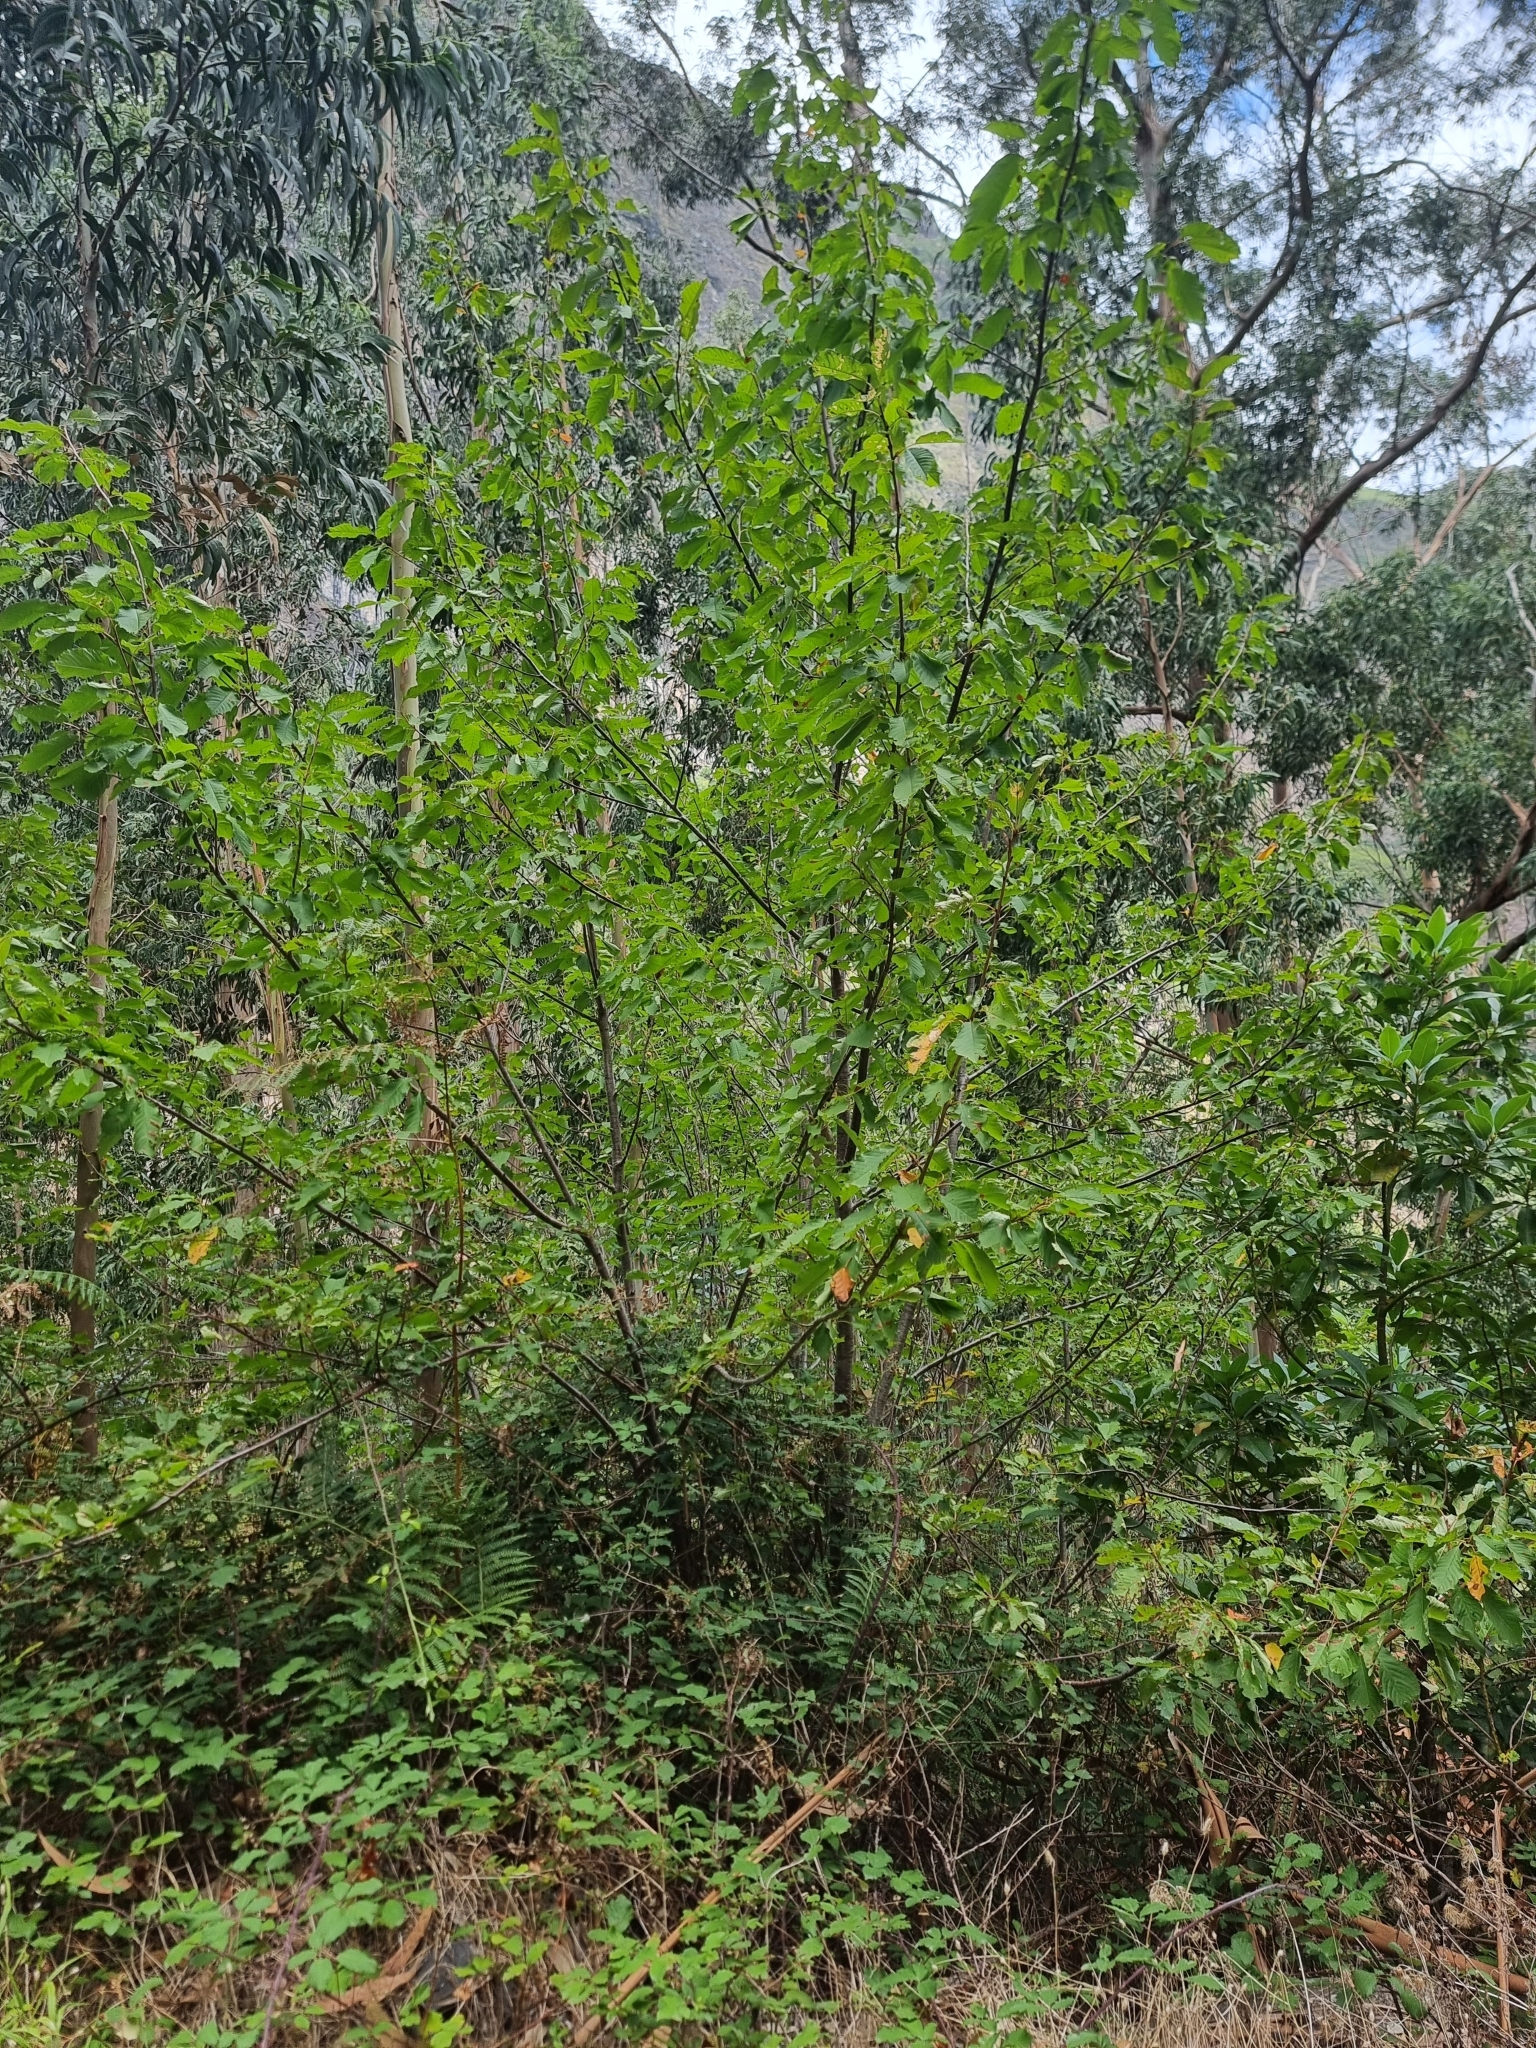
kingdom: Plantae
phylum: Tracheophyta
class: Magnoliopsida
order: Rosales
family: Rosaceae
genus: Prunus
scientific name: Prunus avium
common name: Sweet cherry
